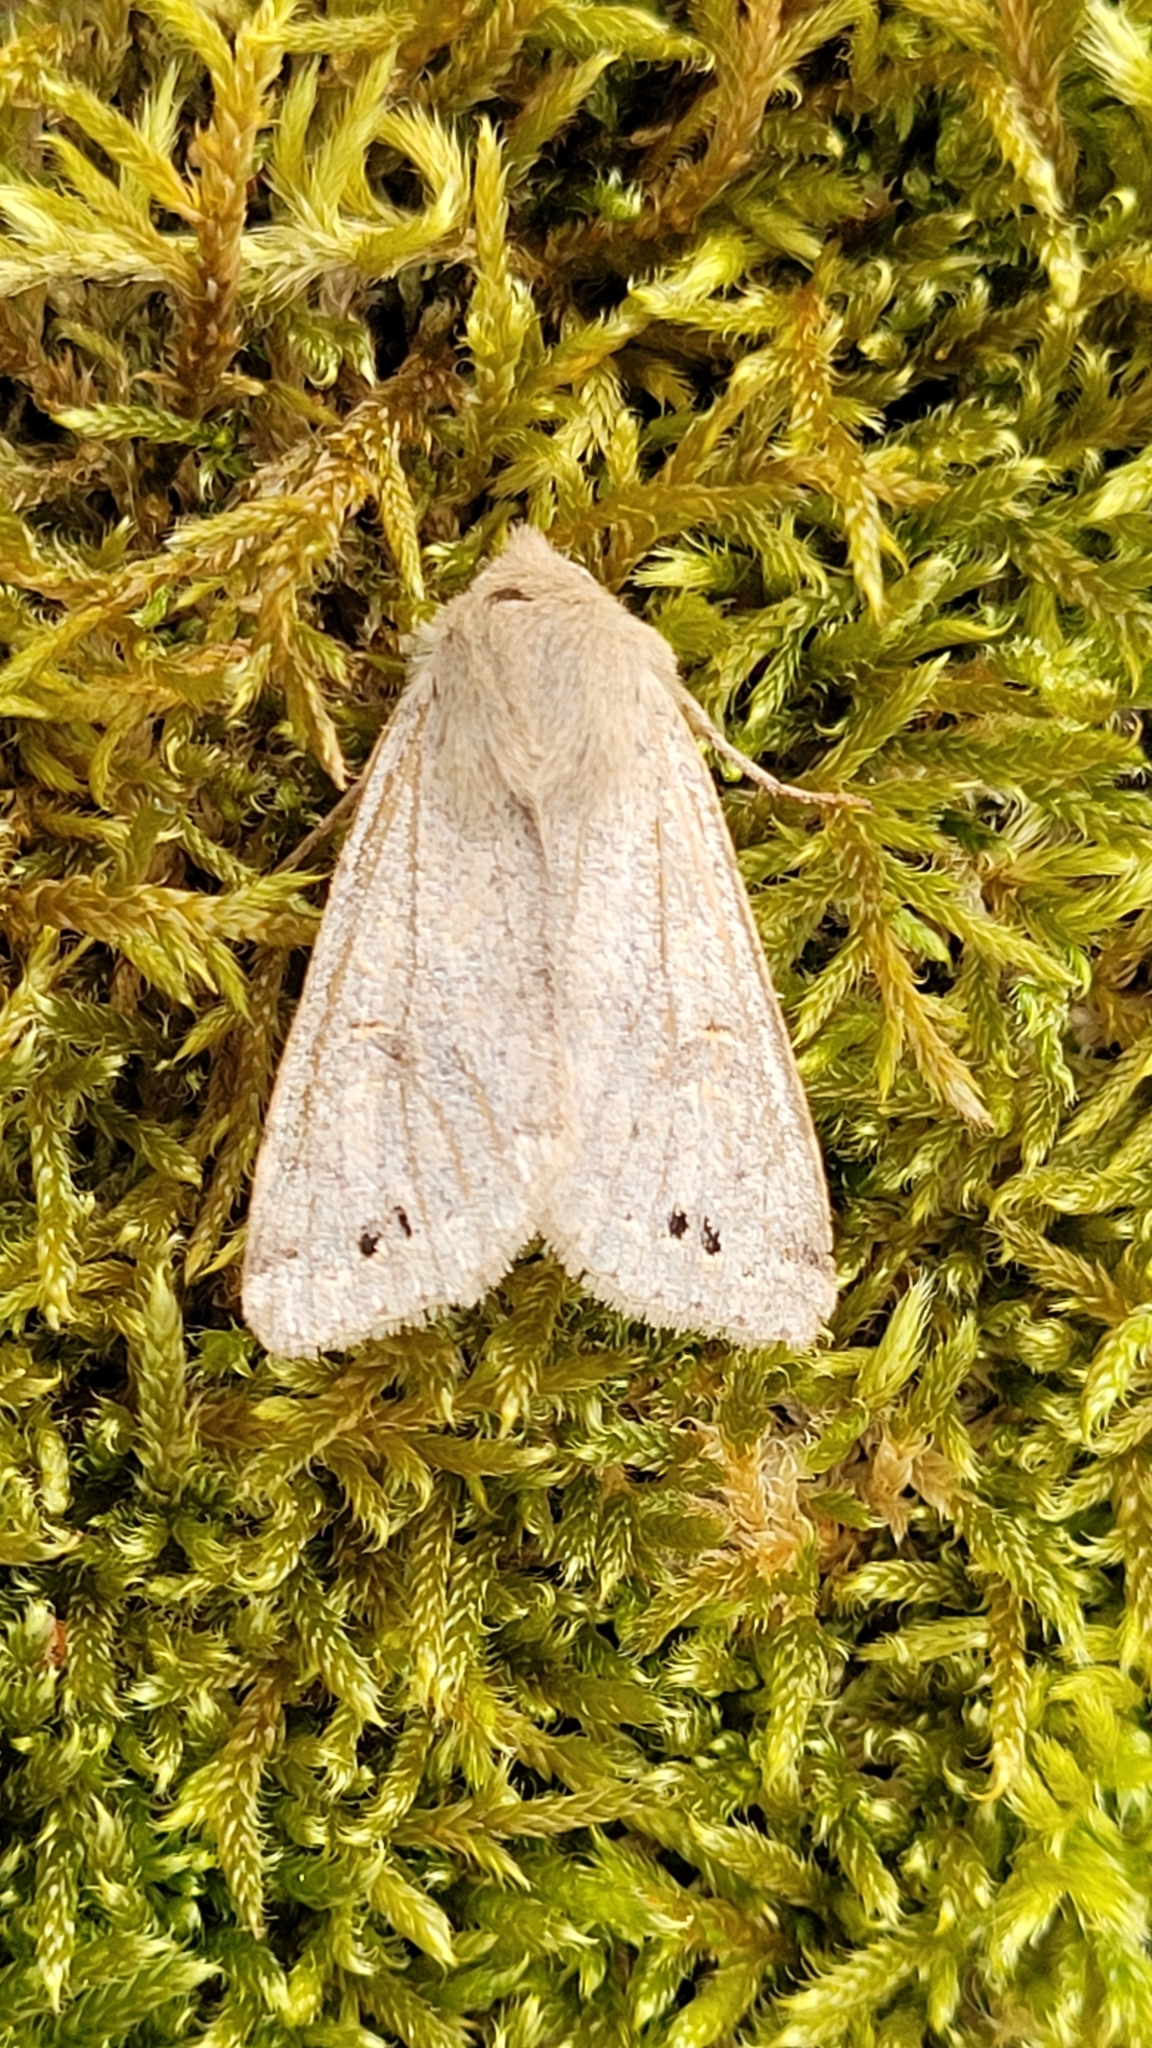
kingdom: Animalia
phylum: Arthropoda
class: Insecta
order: Lepidoptera
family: Noctuidae
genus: Anorthoa
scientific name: Anorthoa munda
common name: Twin-spotted quaker
